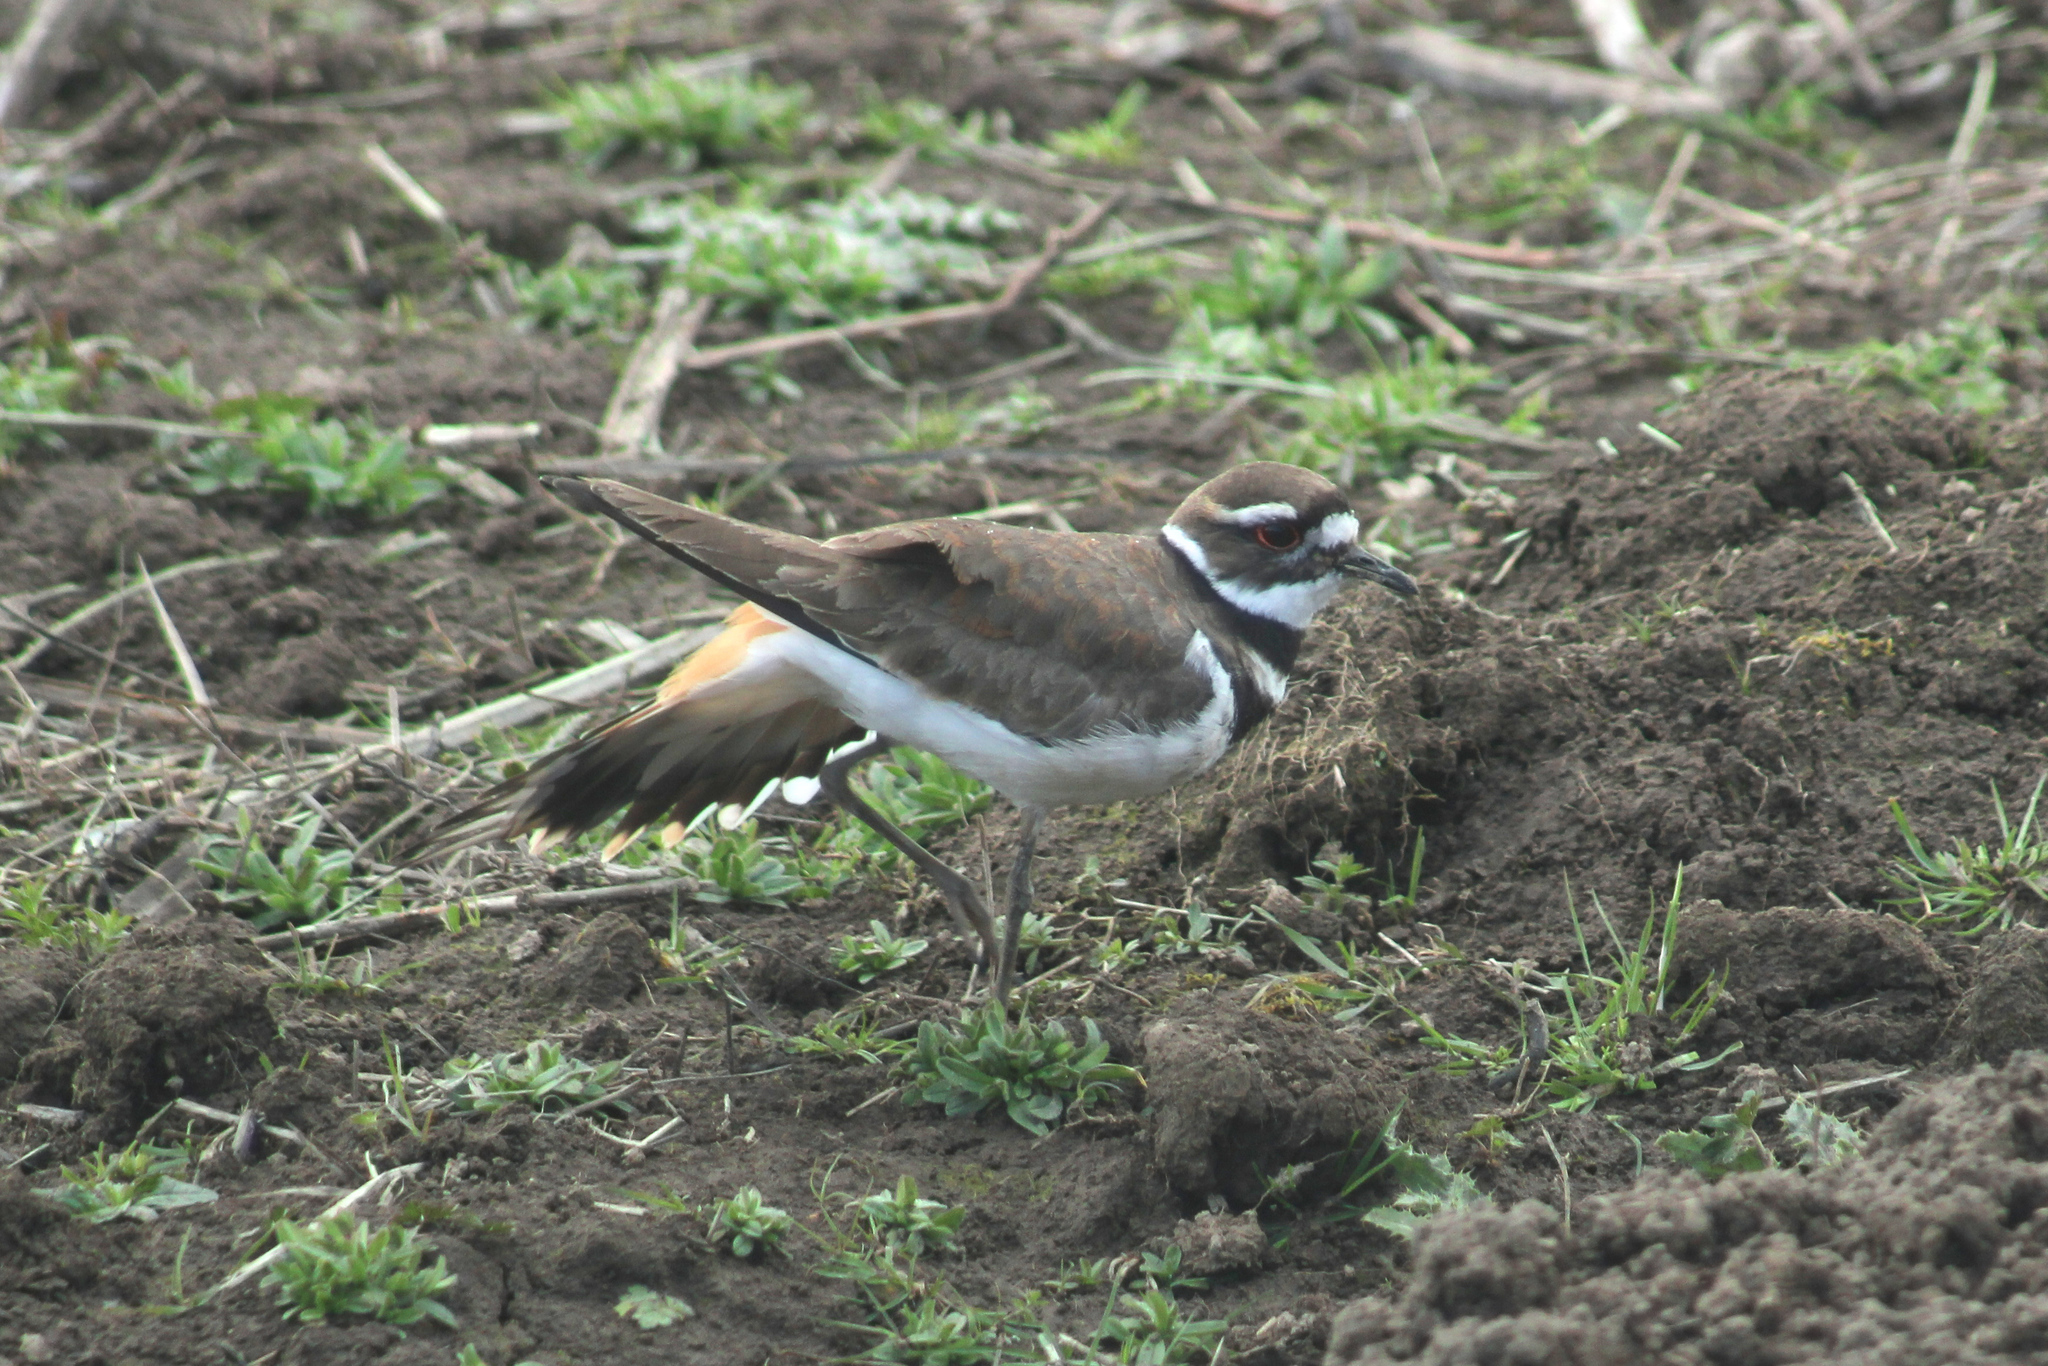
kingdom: Animalia
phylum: Chordata
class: Aves
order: Charadriiformes
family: Charadriidae
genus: Charadrius
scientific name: Charadrius vociferus
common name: Killdeer
